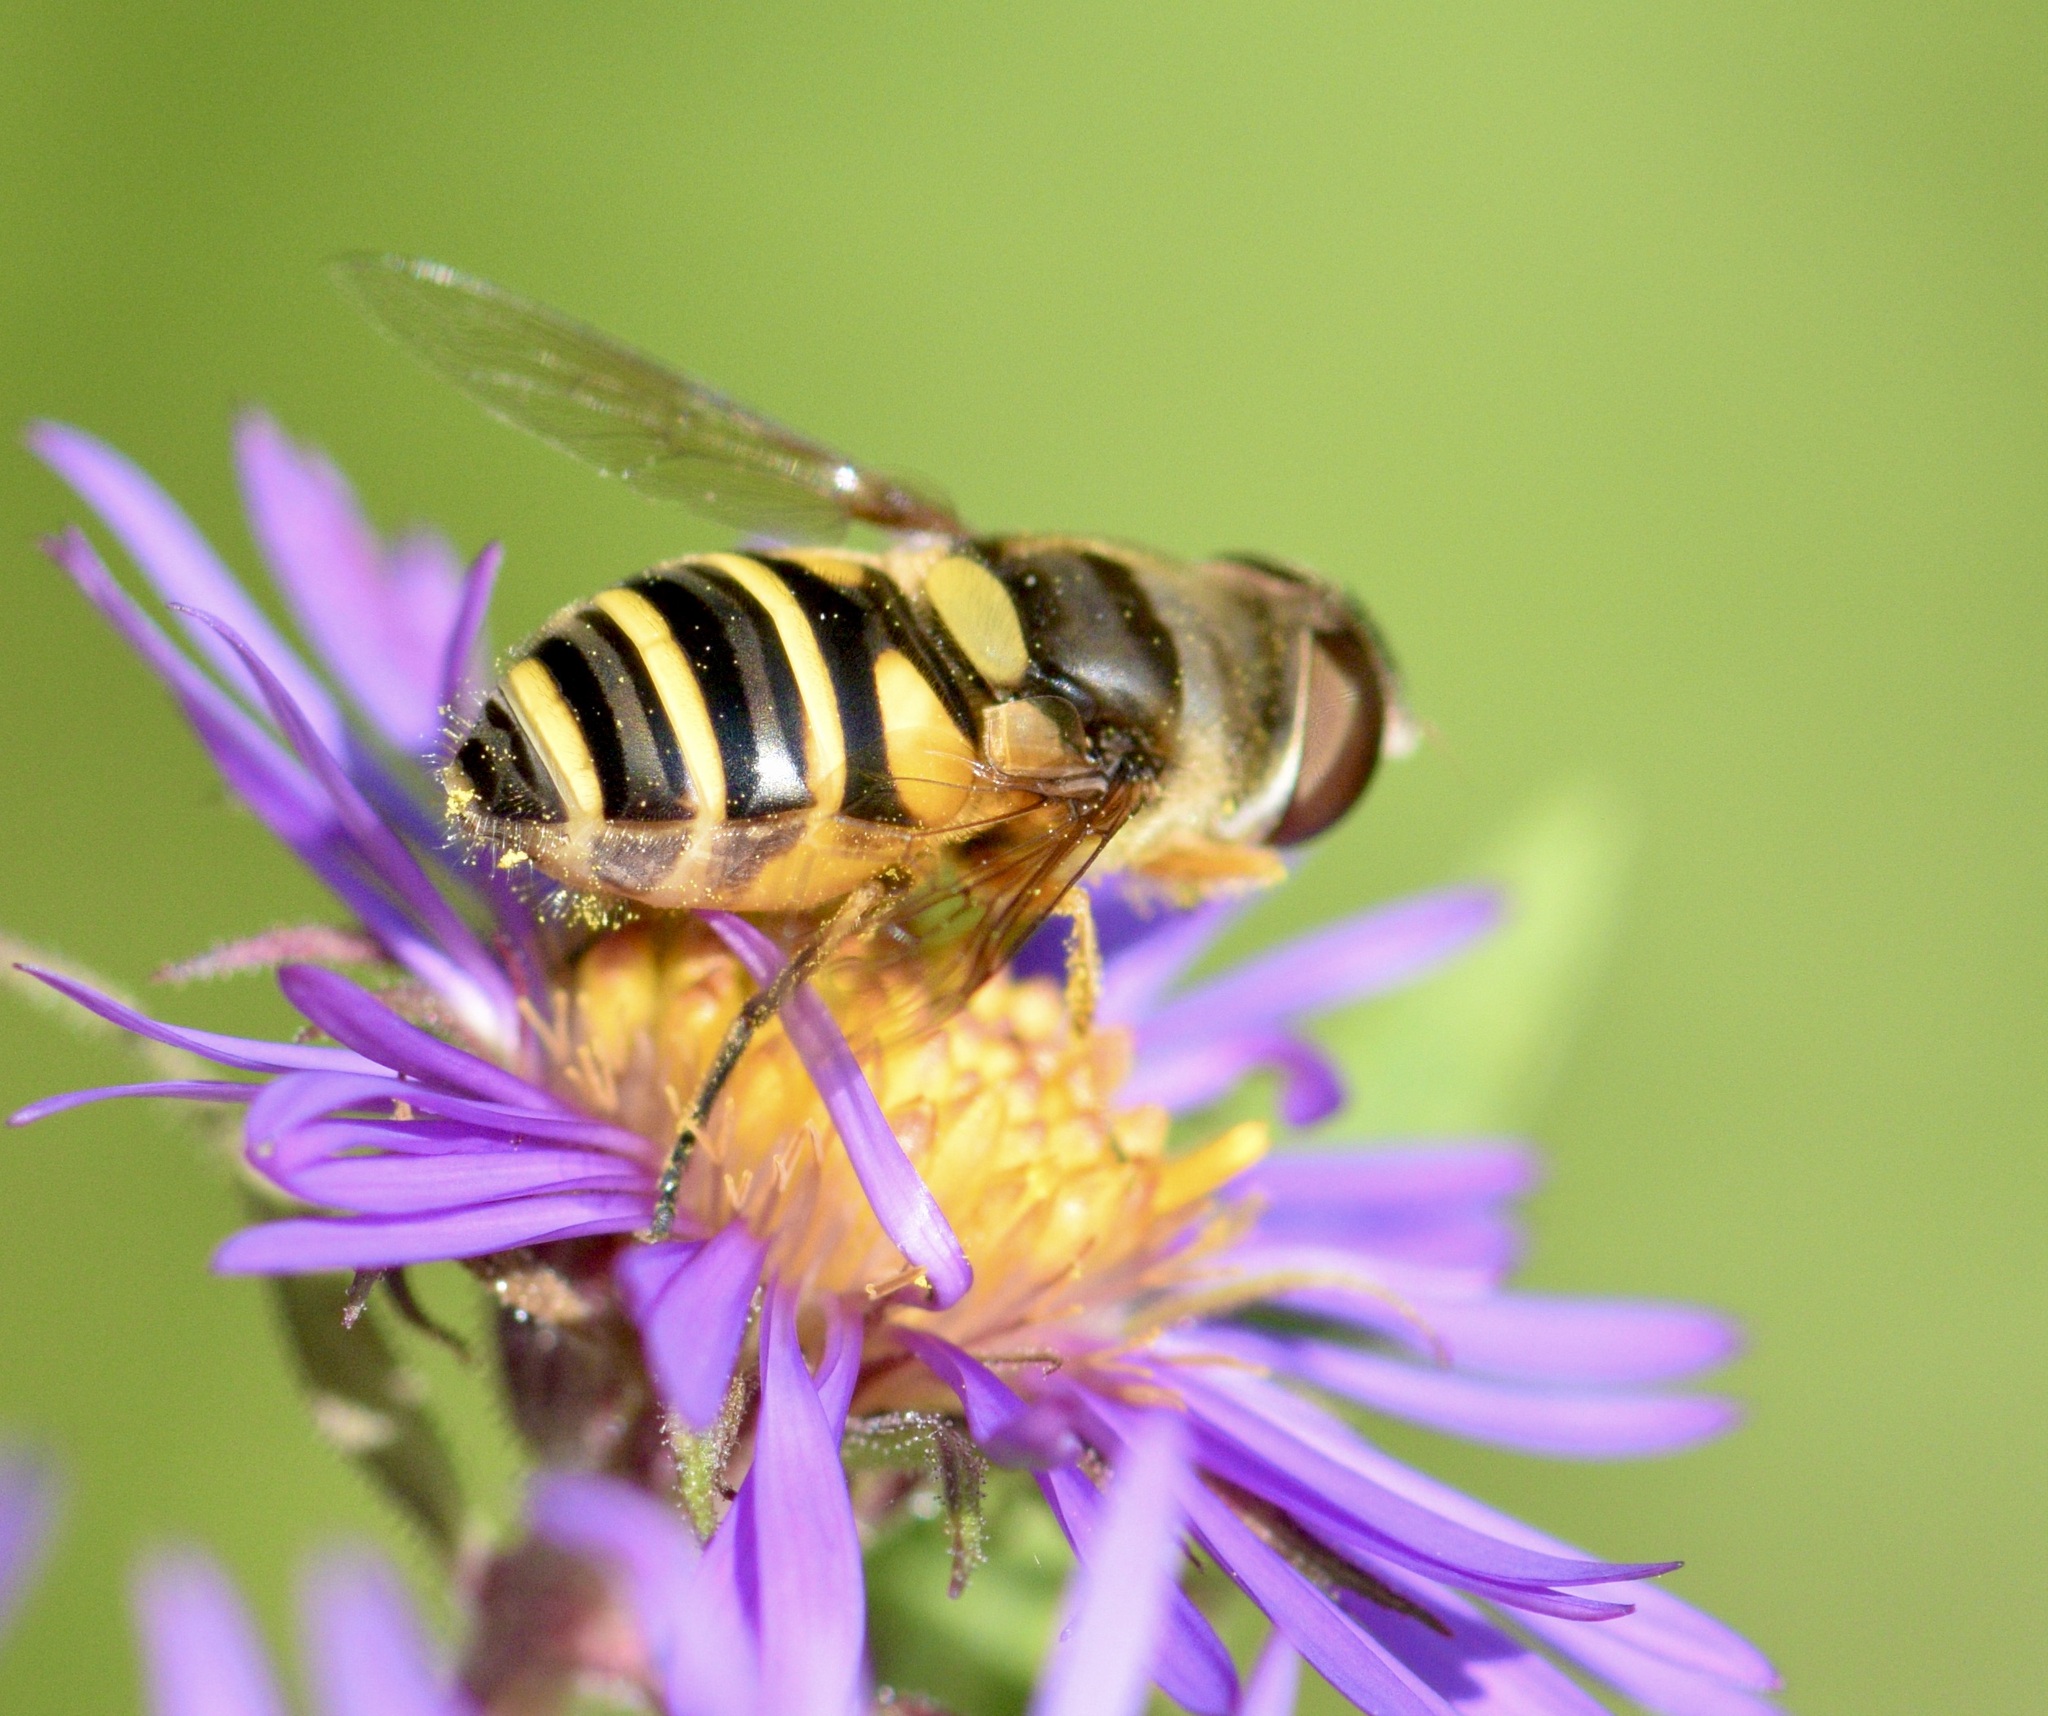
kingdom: Animalia
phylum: Arthropoda
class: Insecta
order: Diptera
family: Syrphidae
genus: Eristalis
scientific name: Eristalis transversa
